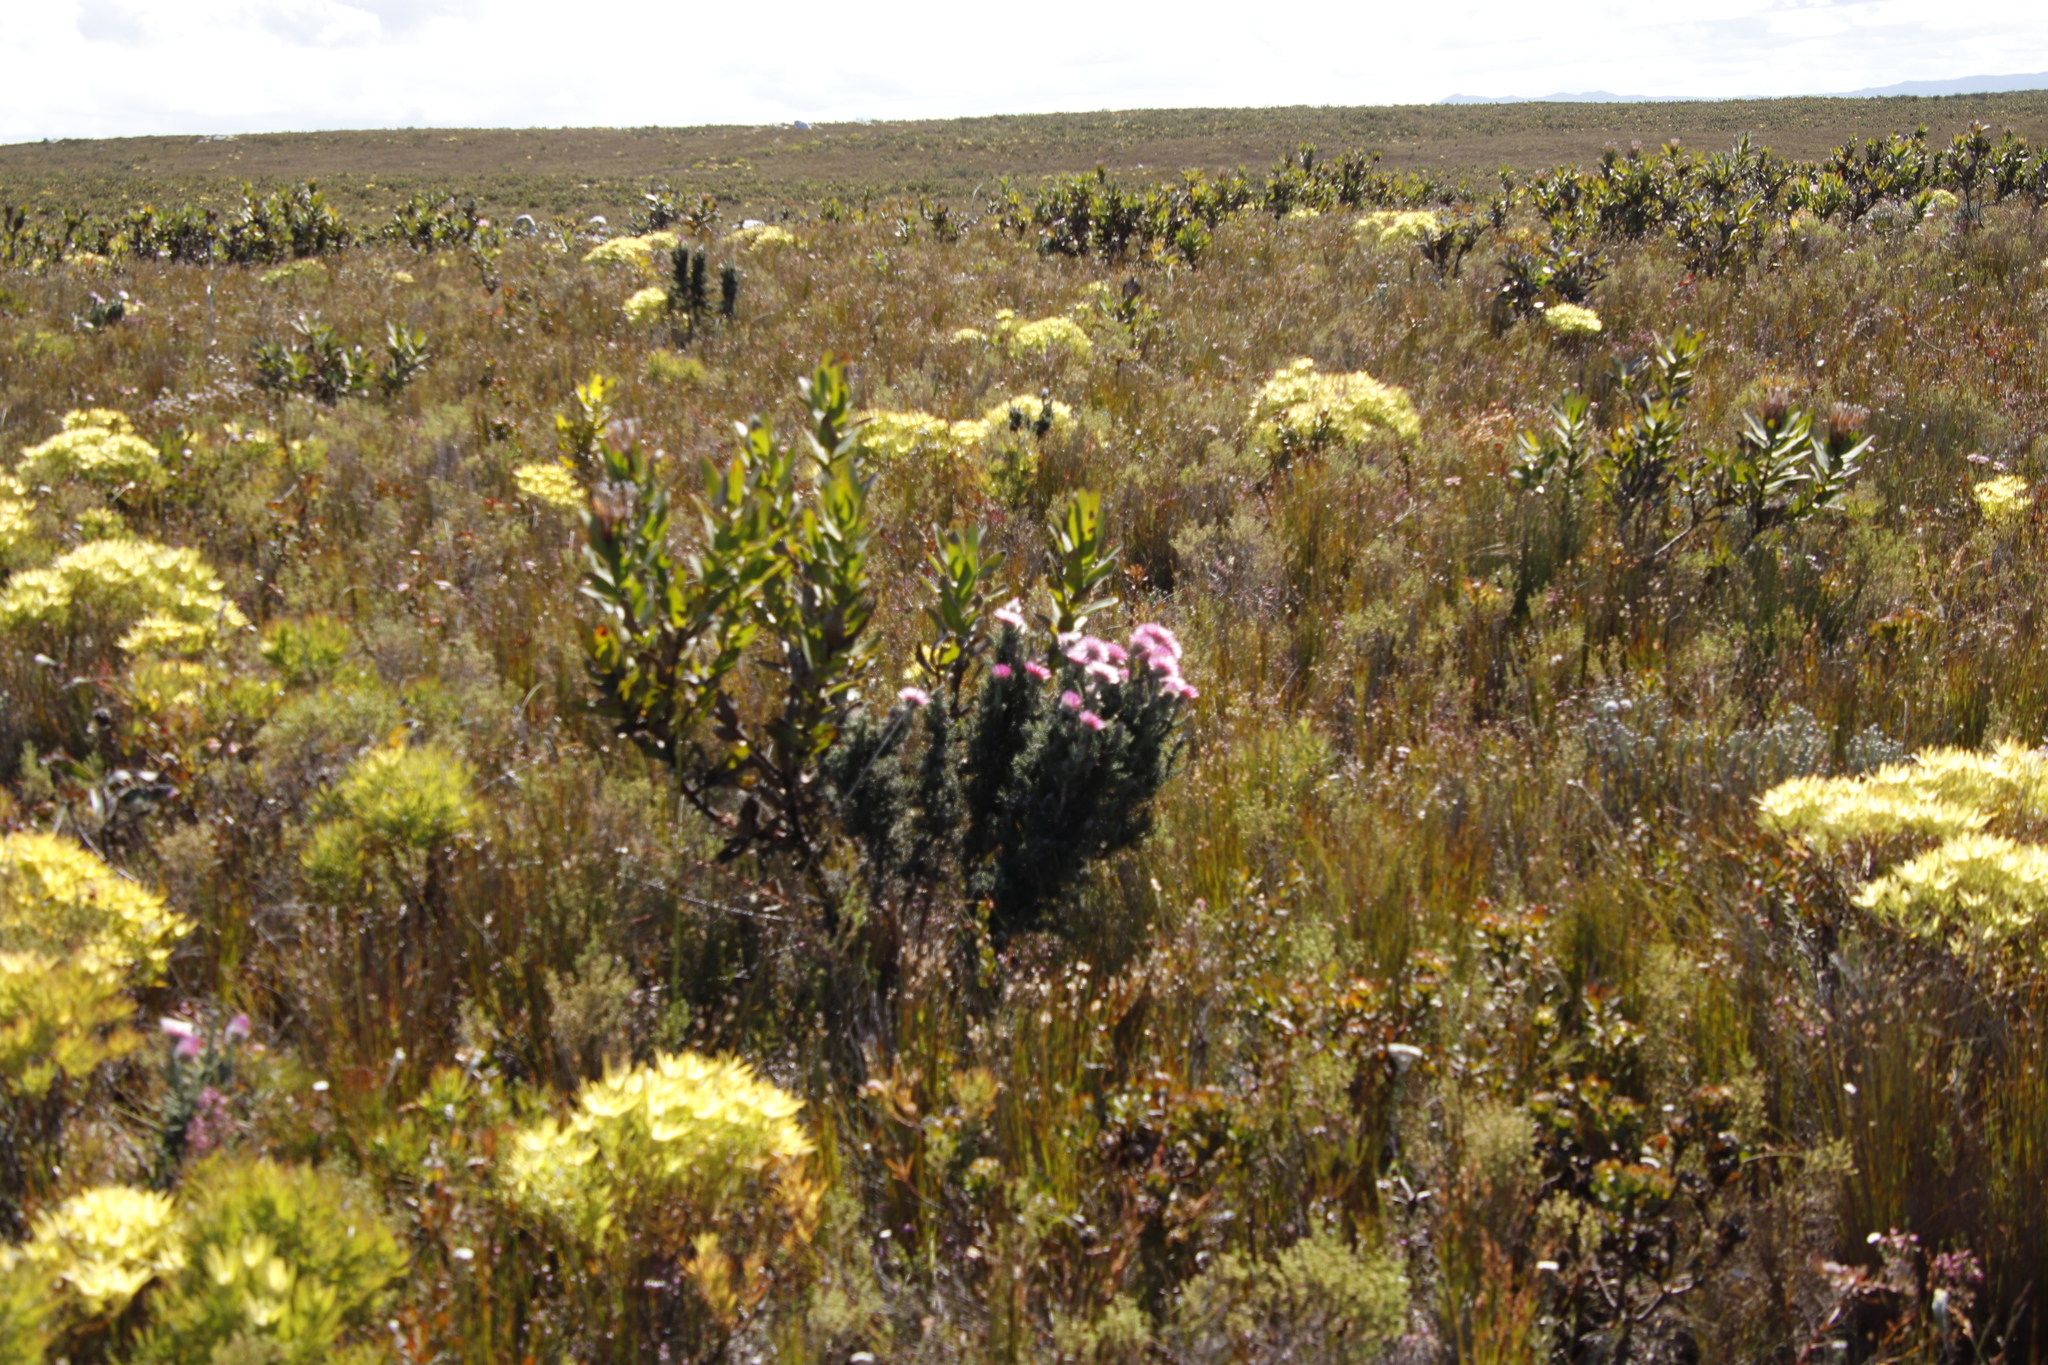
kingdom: Plantae
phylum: Tracheophyta
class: Magnoliopsida
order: Asterales
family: Asteraceae
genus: Phaenocoma
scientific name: Phaenocoma prolifera
